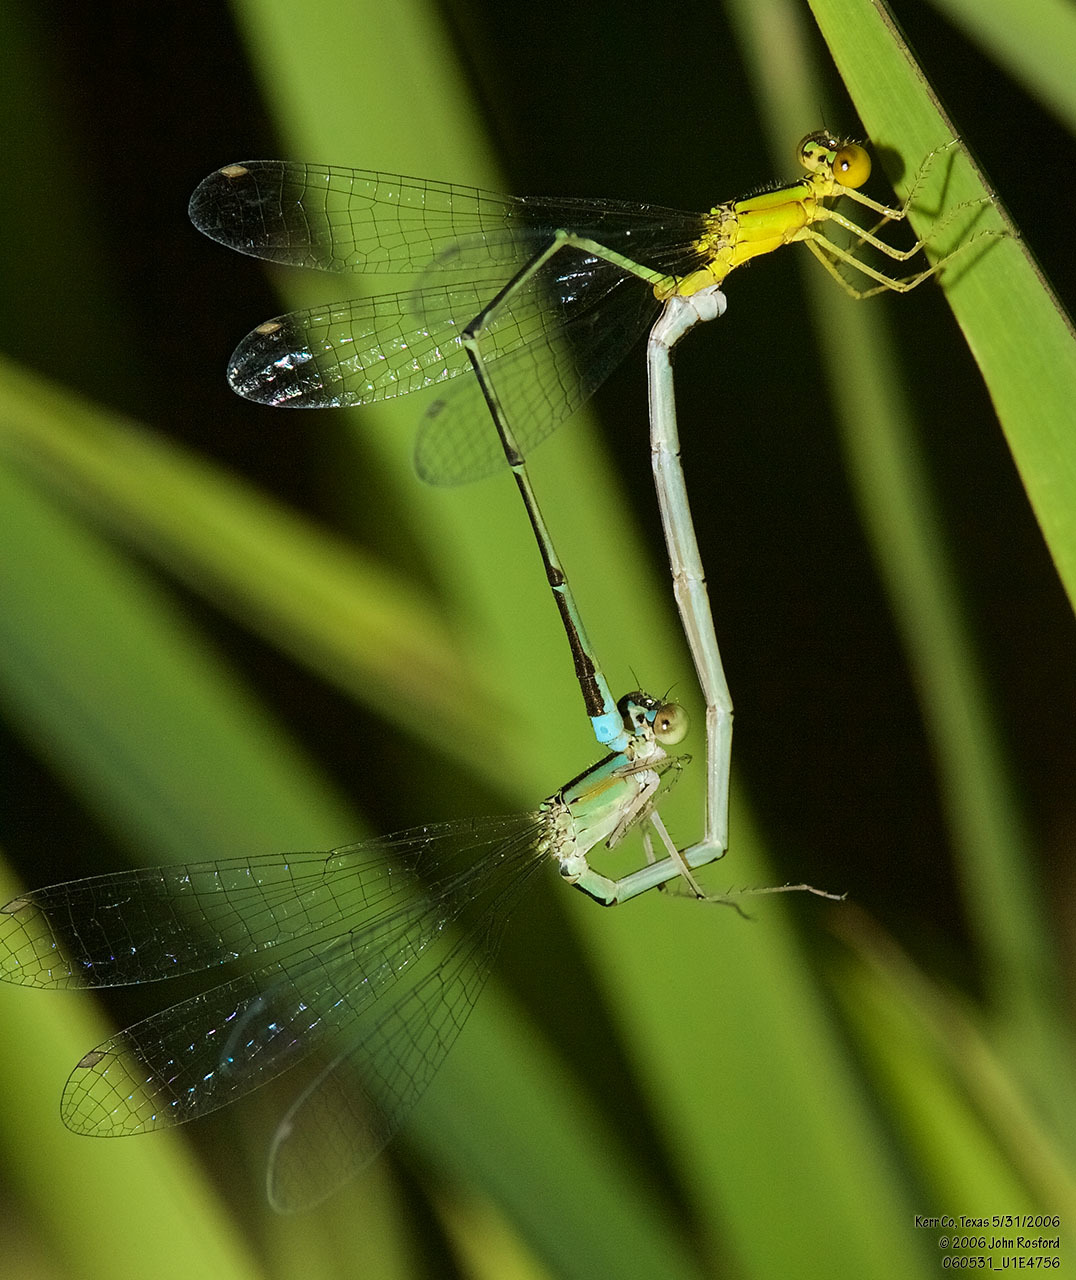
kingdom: Animalia
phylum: Arthropoda
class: Insecta
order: Odonata
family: Coenagrionidae
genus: Enallagma
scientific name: Enallagma vesperum
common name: Vesper bluet
